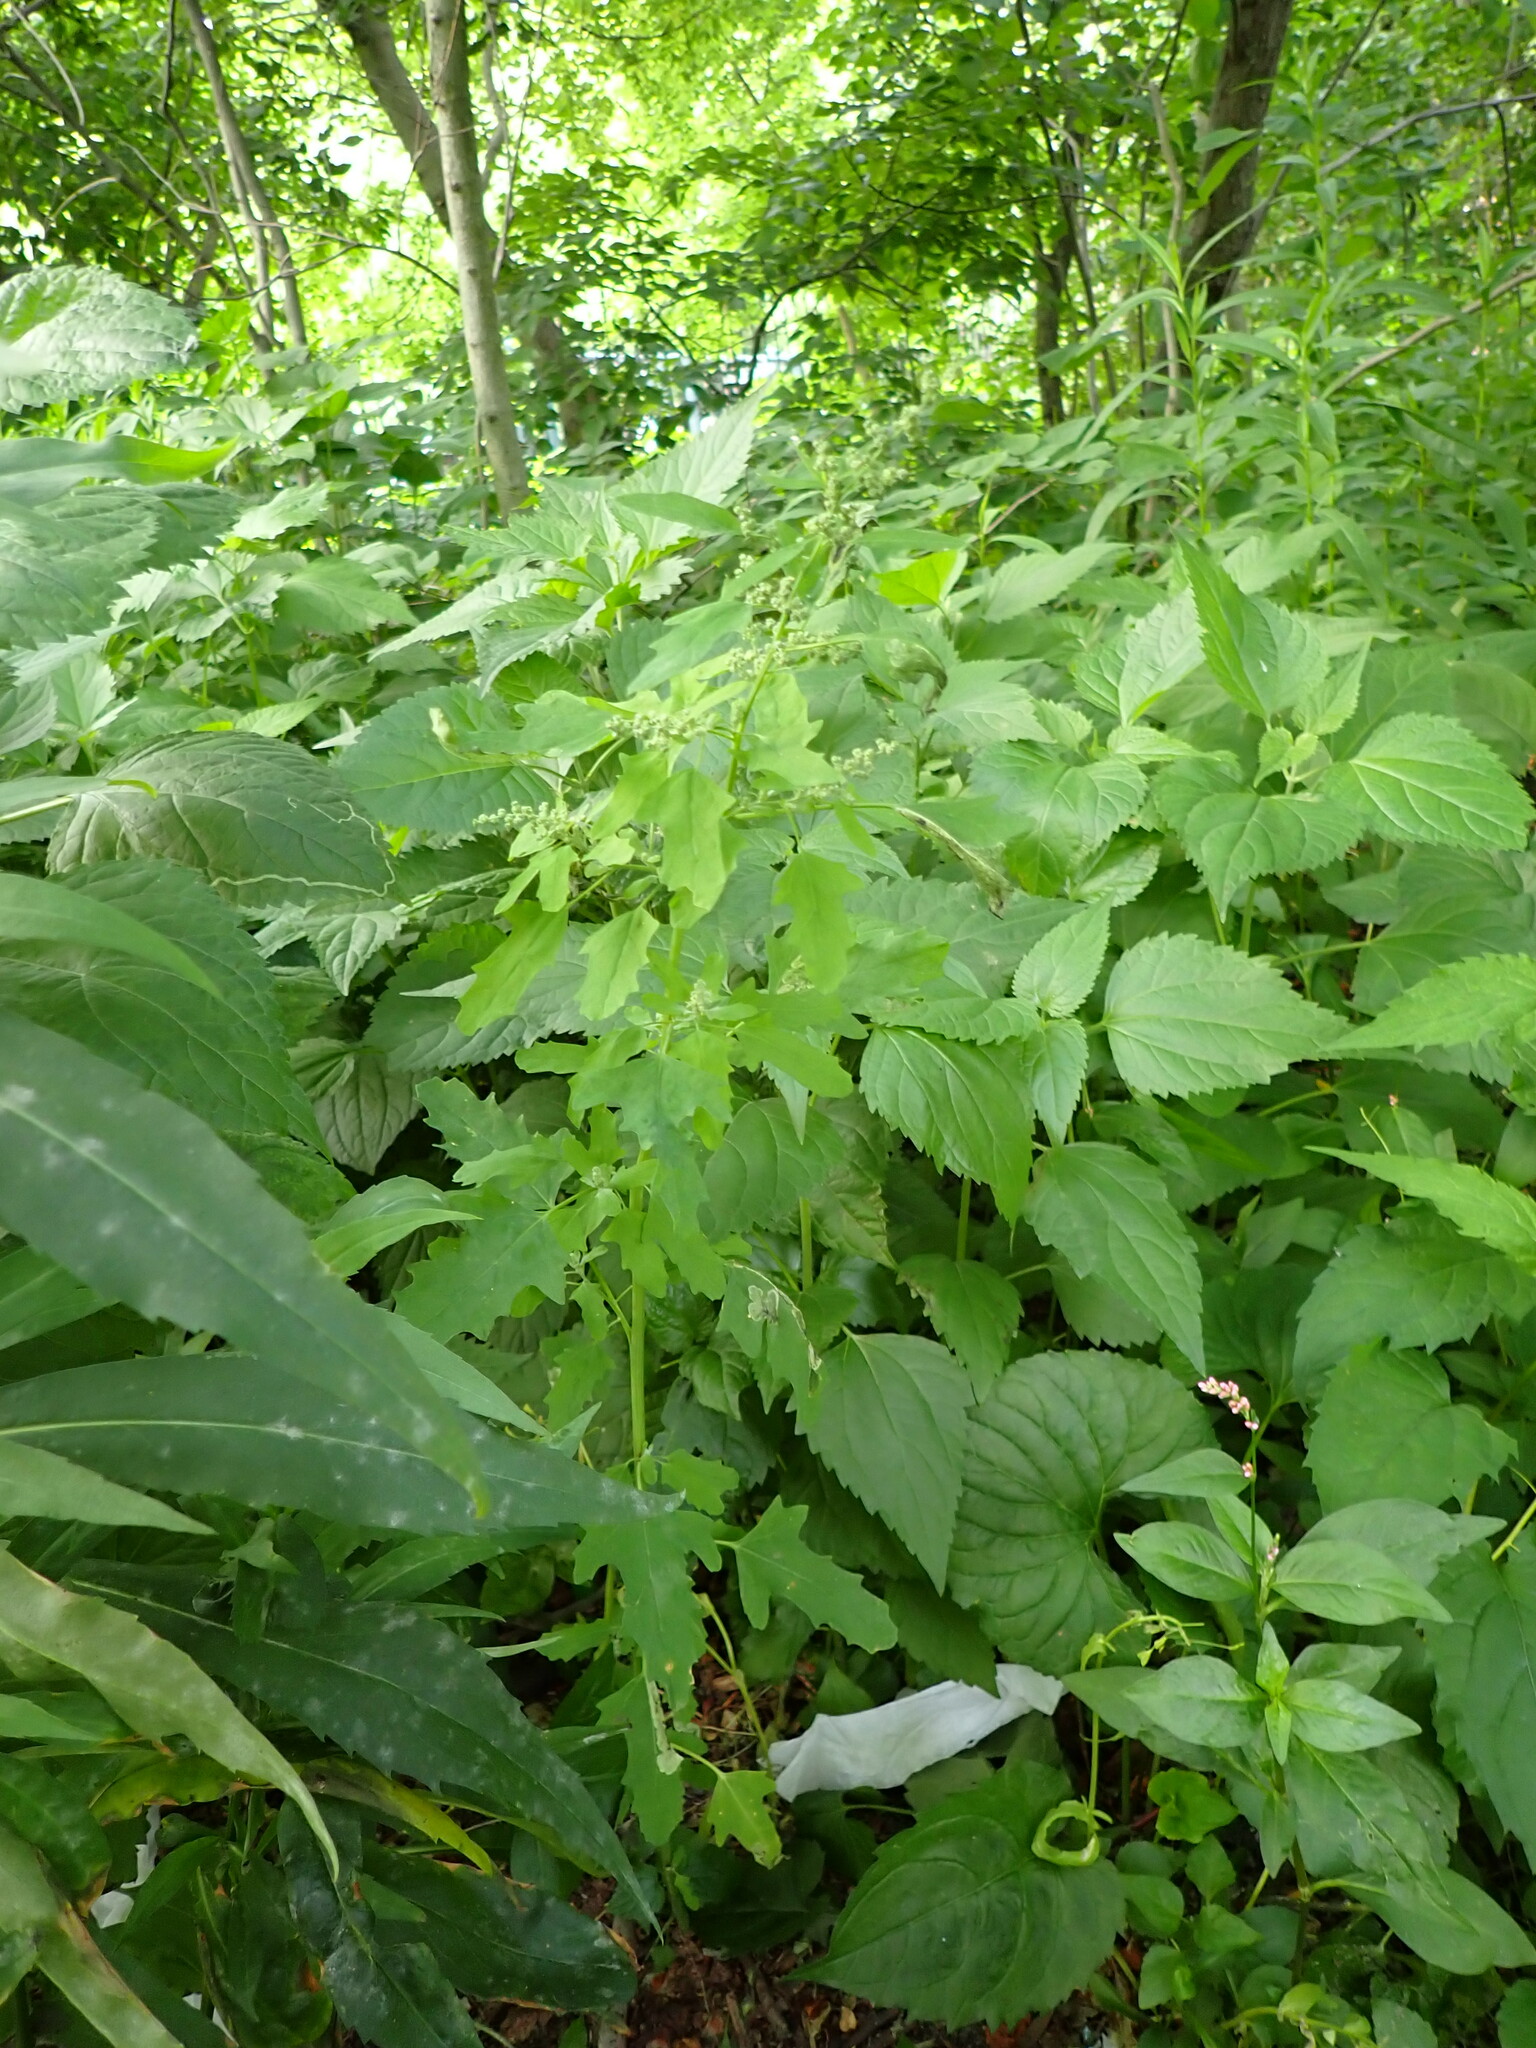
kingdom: Plantae
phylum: Tracheophyta
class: Magnoliopsida
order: Caryophyllales
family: Amaranthaceae
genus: Chenopodium
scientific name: Chenopodium ficifolium
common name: Fig-leaved goosefoot
